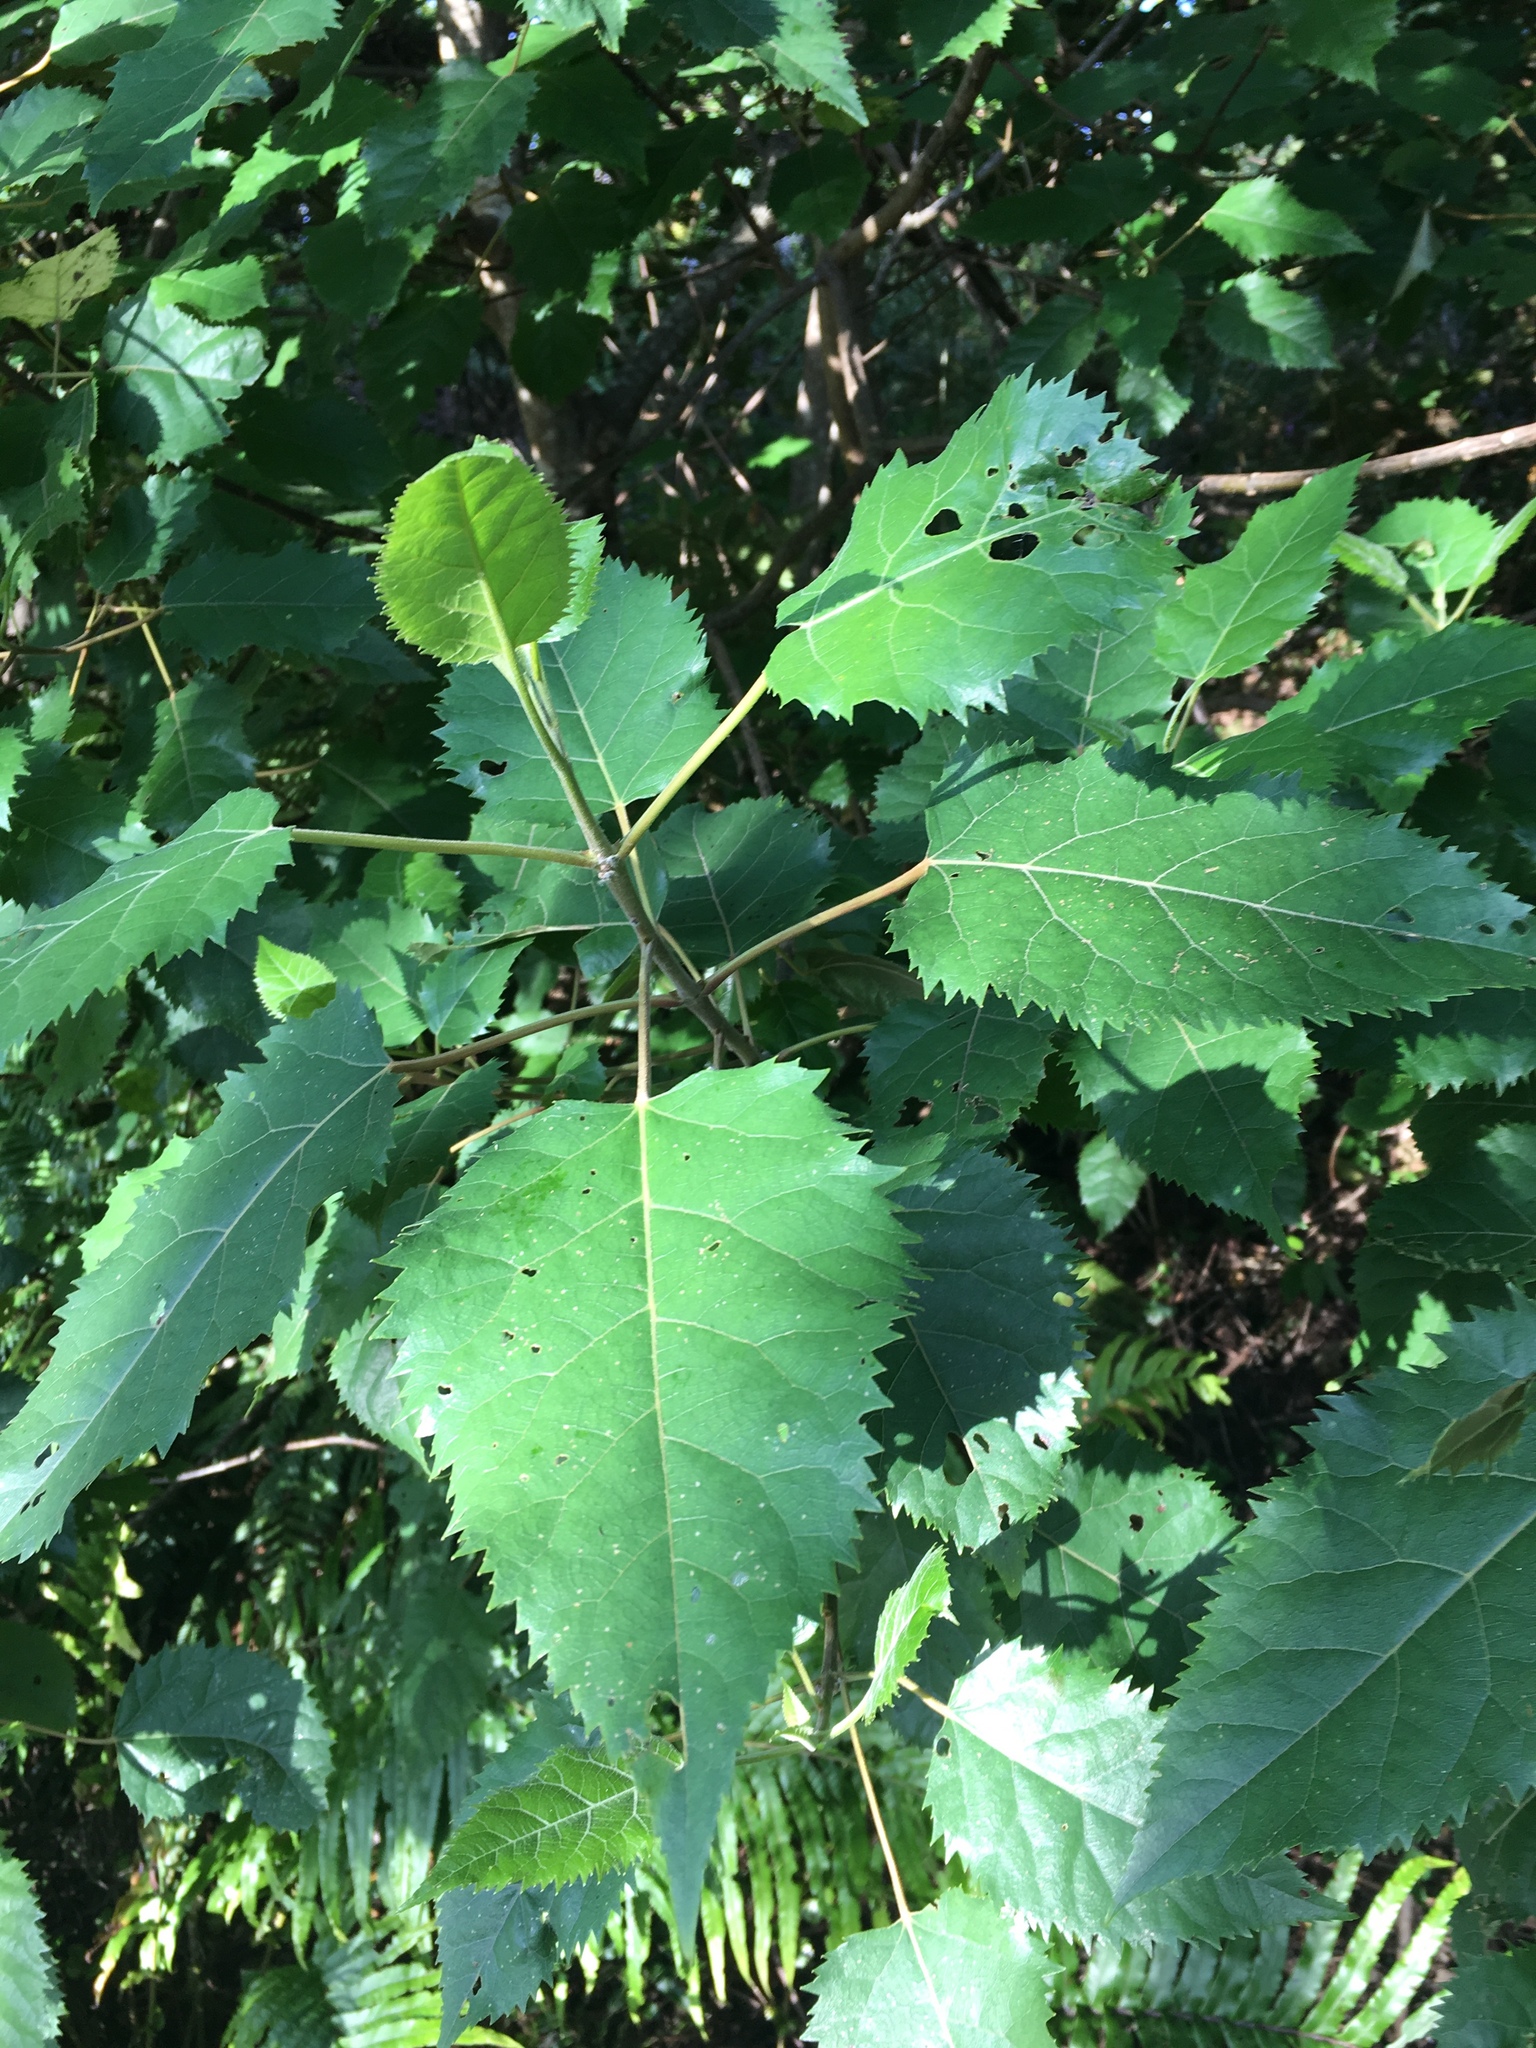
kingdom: Plantae
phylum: Tracheophyta
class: Magnoliopsida
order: Oxalidales
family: Elaeocarpaceae
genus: Aristotelia
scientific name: Aristotelia serrata
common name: New zealand wineberry
